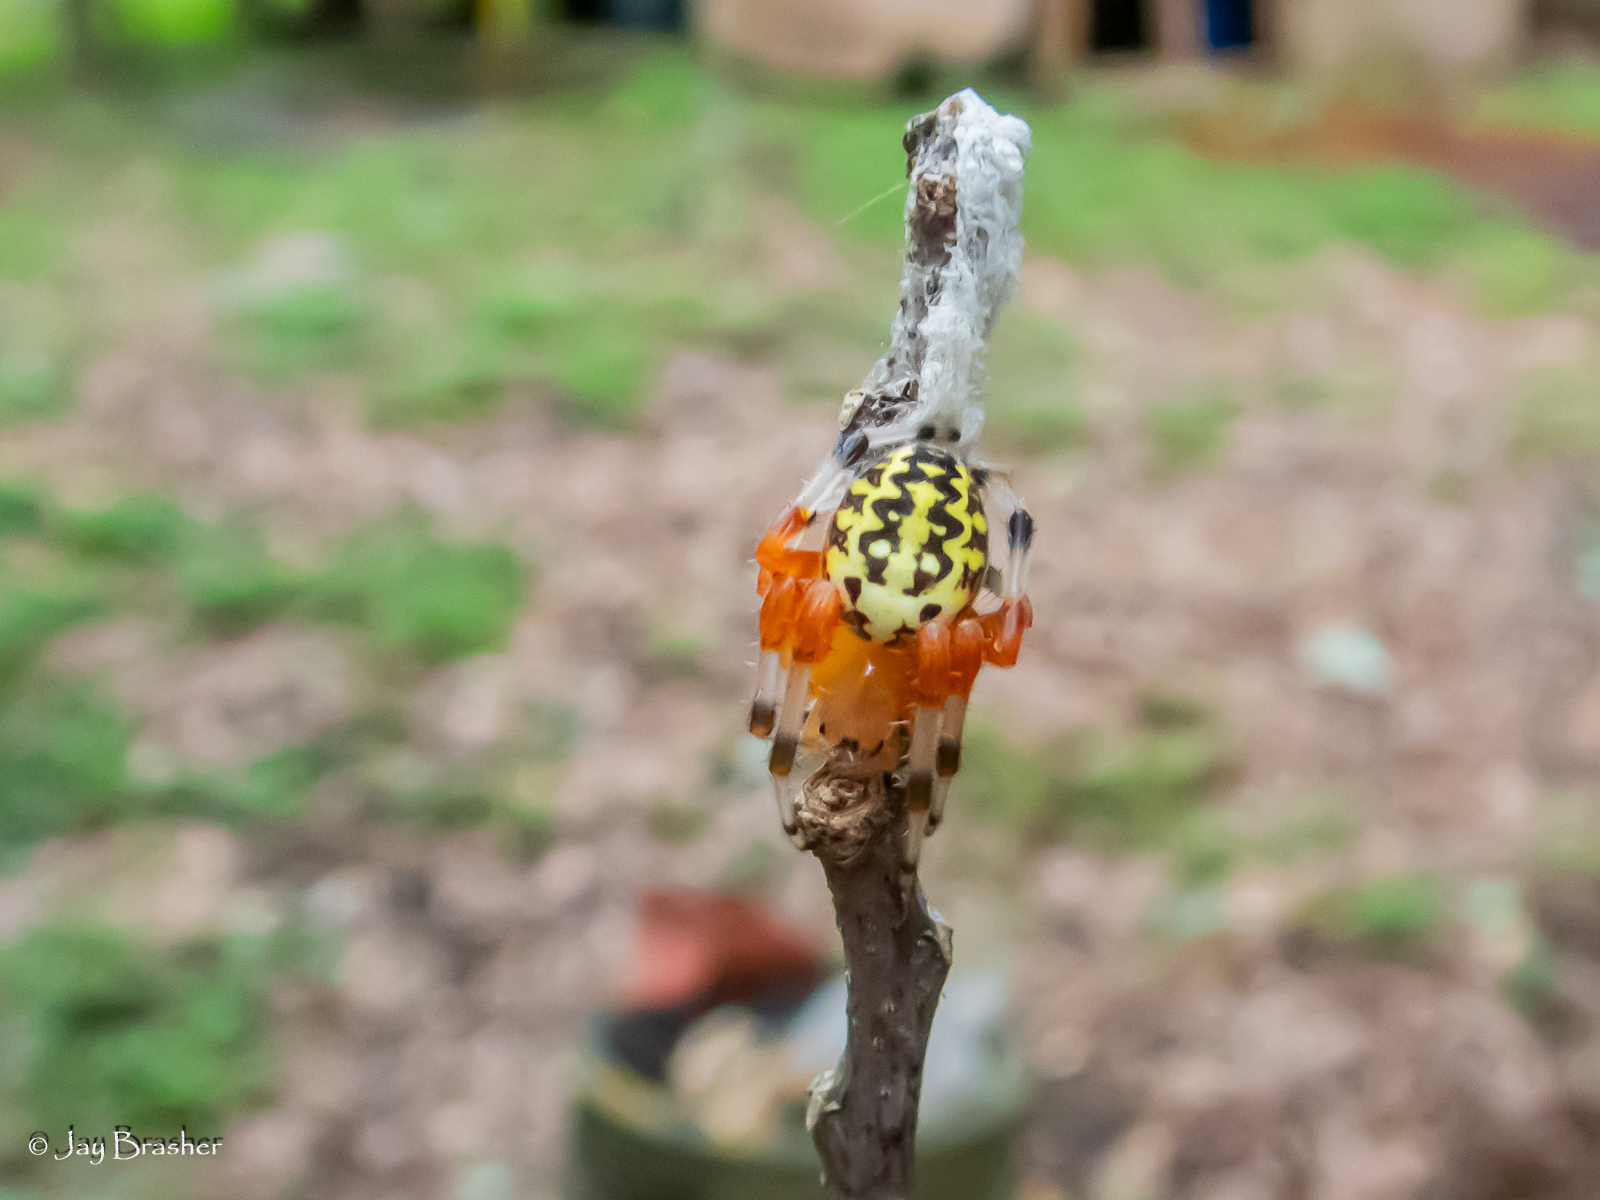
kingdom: Animalia
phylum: Arthropoda
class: Arachnida
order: Araneae
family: Araneidae
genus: Araneus
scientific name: Araneus marmoreus
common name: Marbled orbweaver
